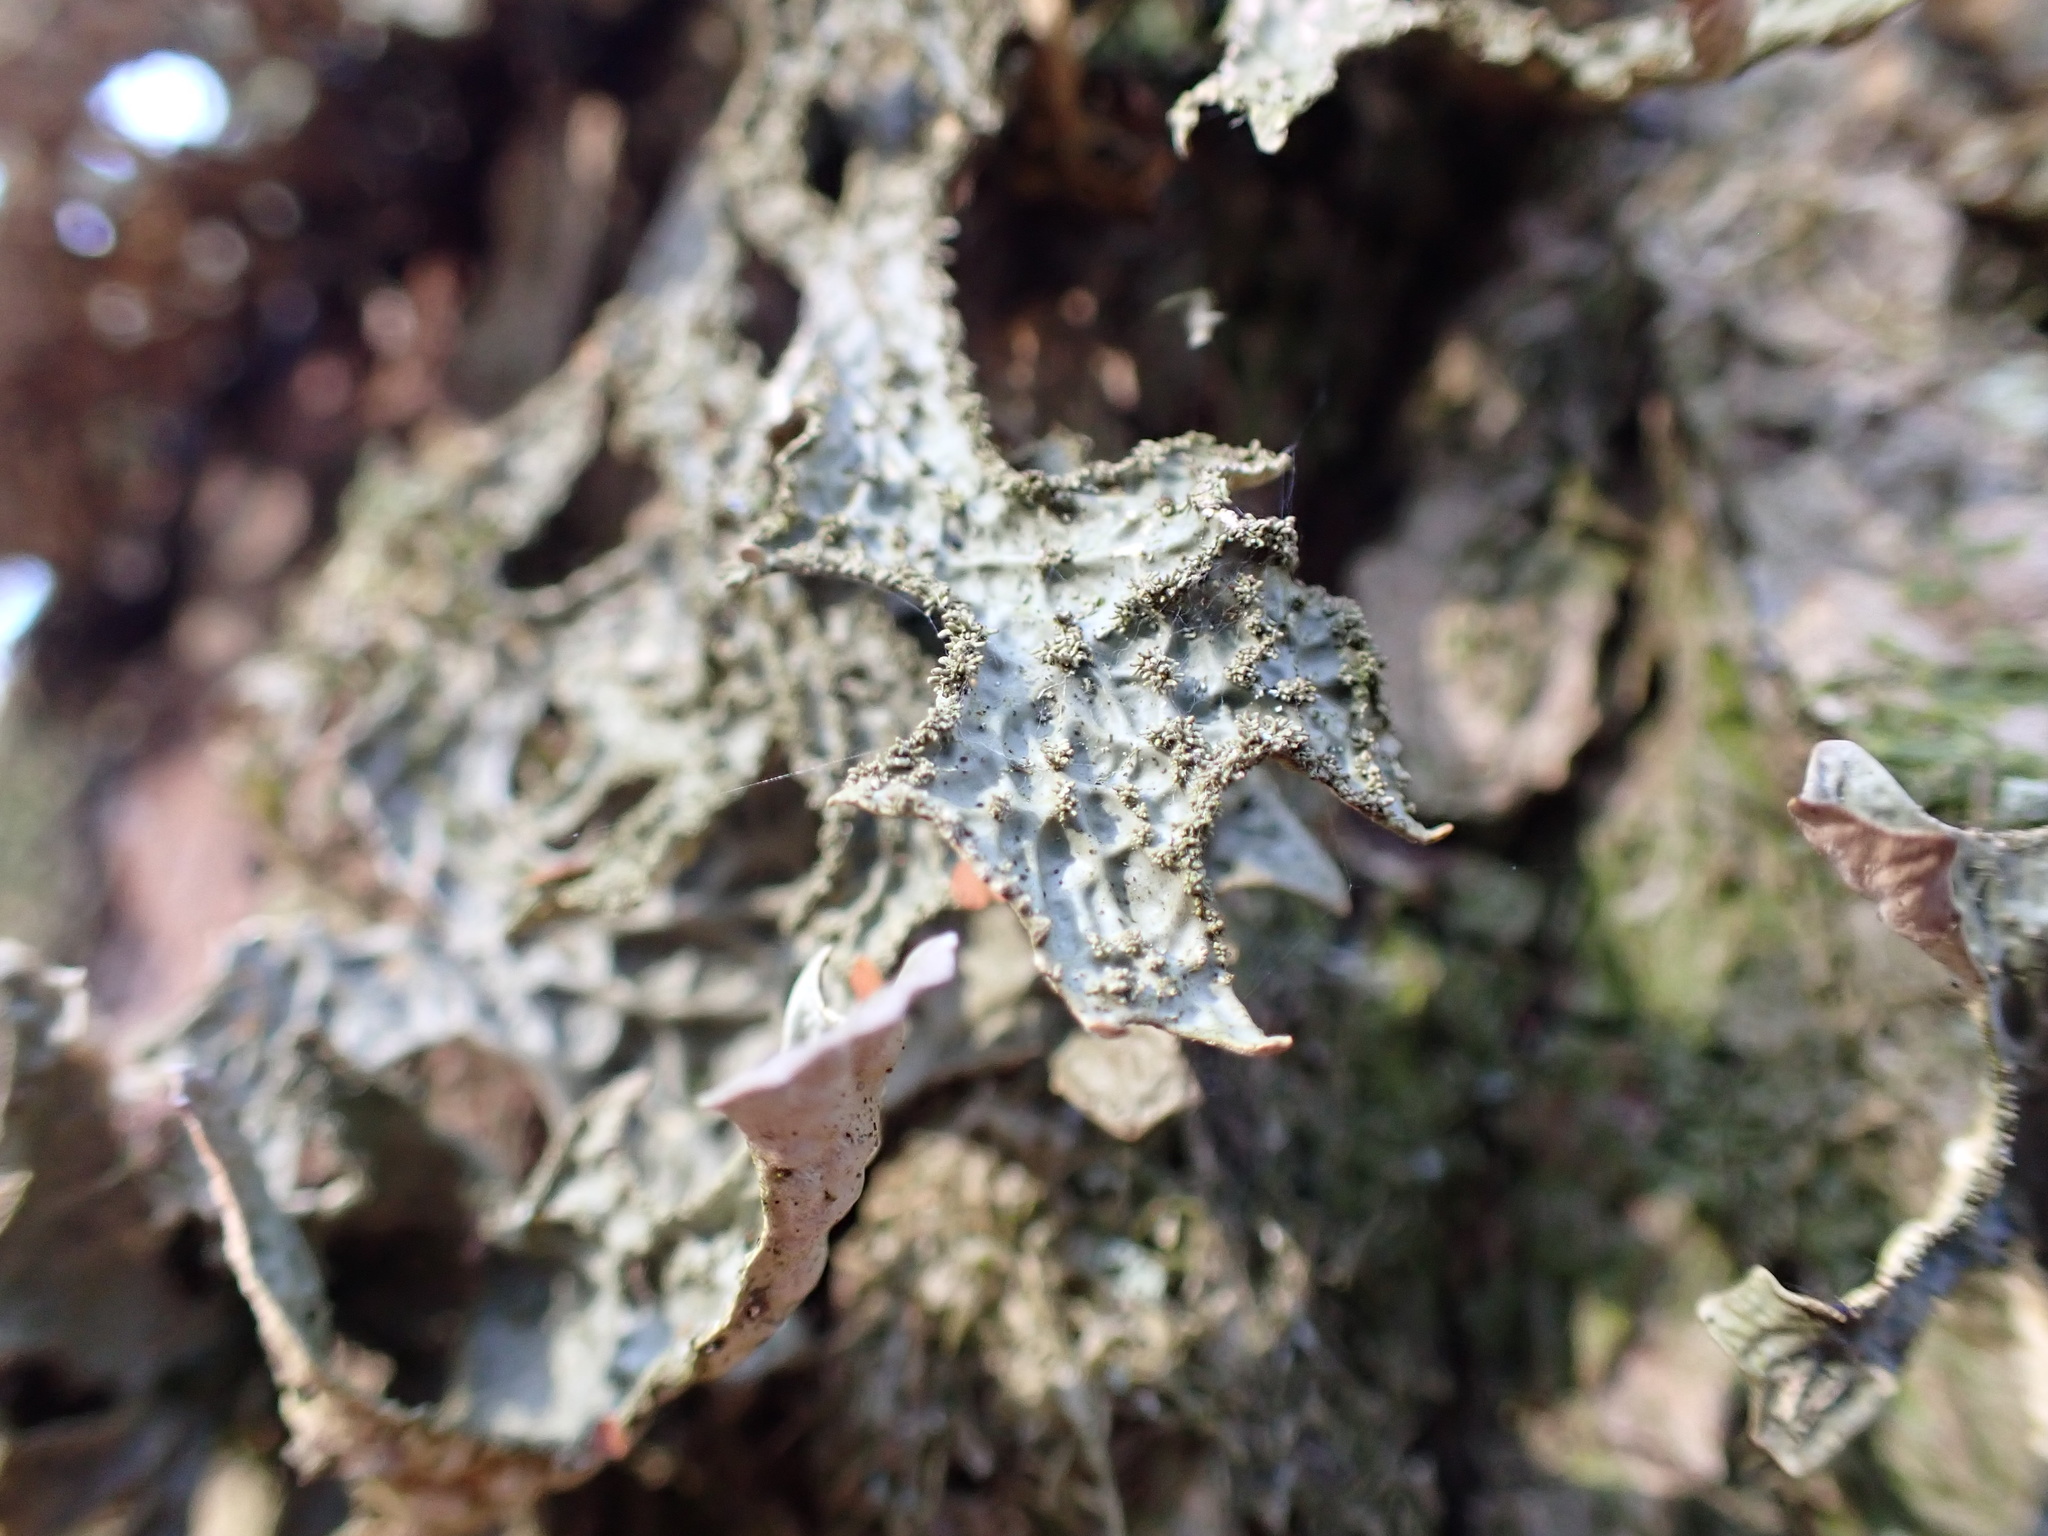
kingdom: Fungi
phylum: Ascomycota
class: Lecanoromycetes
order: Peltigerales
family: Lobariaceae
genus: Lobaria
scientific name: Lobaria pulmonaria
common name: Lungwort
